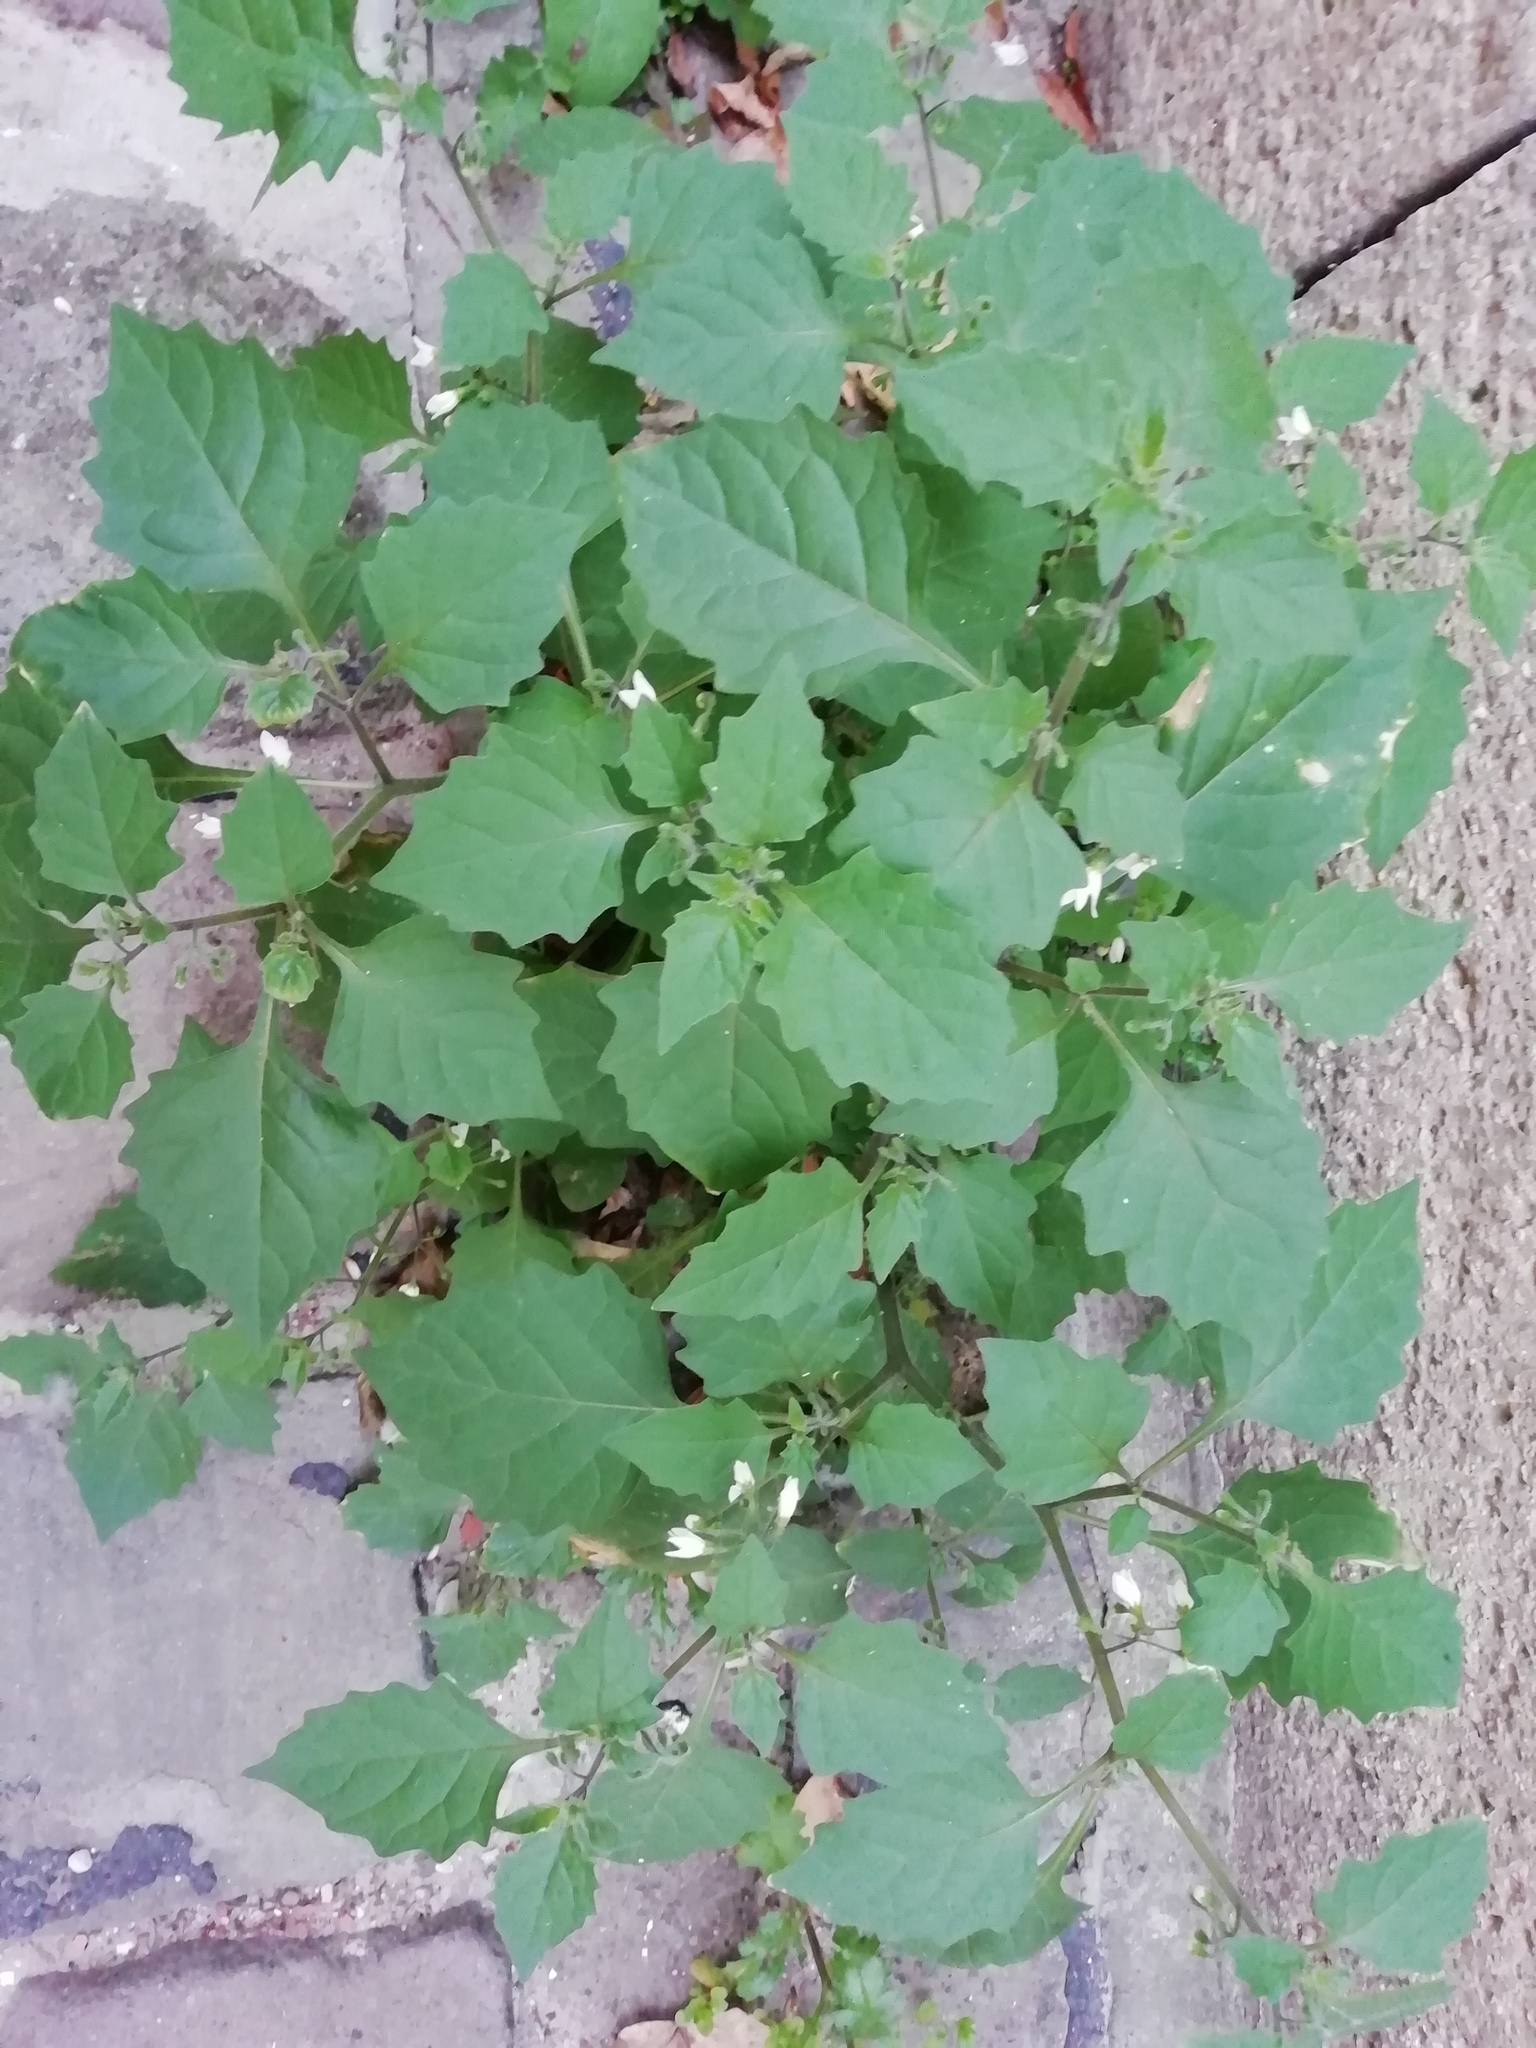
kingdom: Plantae
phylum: Tracheophyta
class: Magnoliopsida
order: Solanales
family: Solanaceae
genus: Solanum
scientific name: Solanum nigrum
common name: Black nightshade
